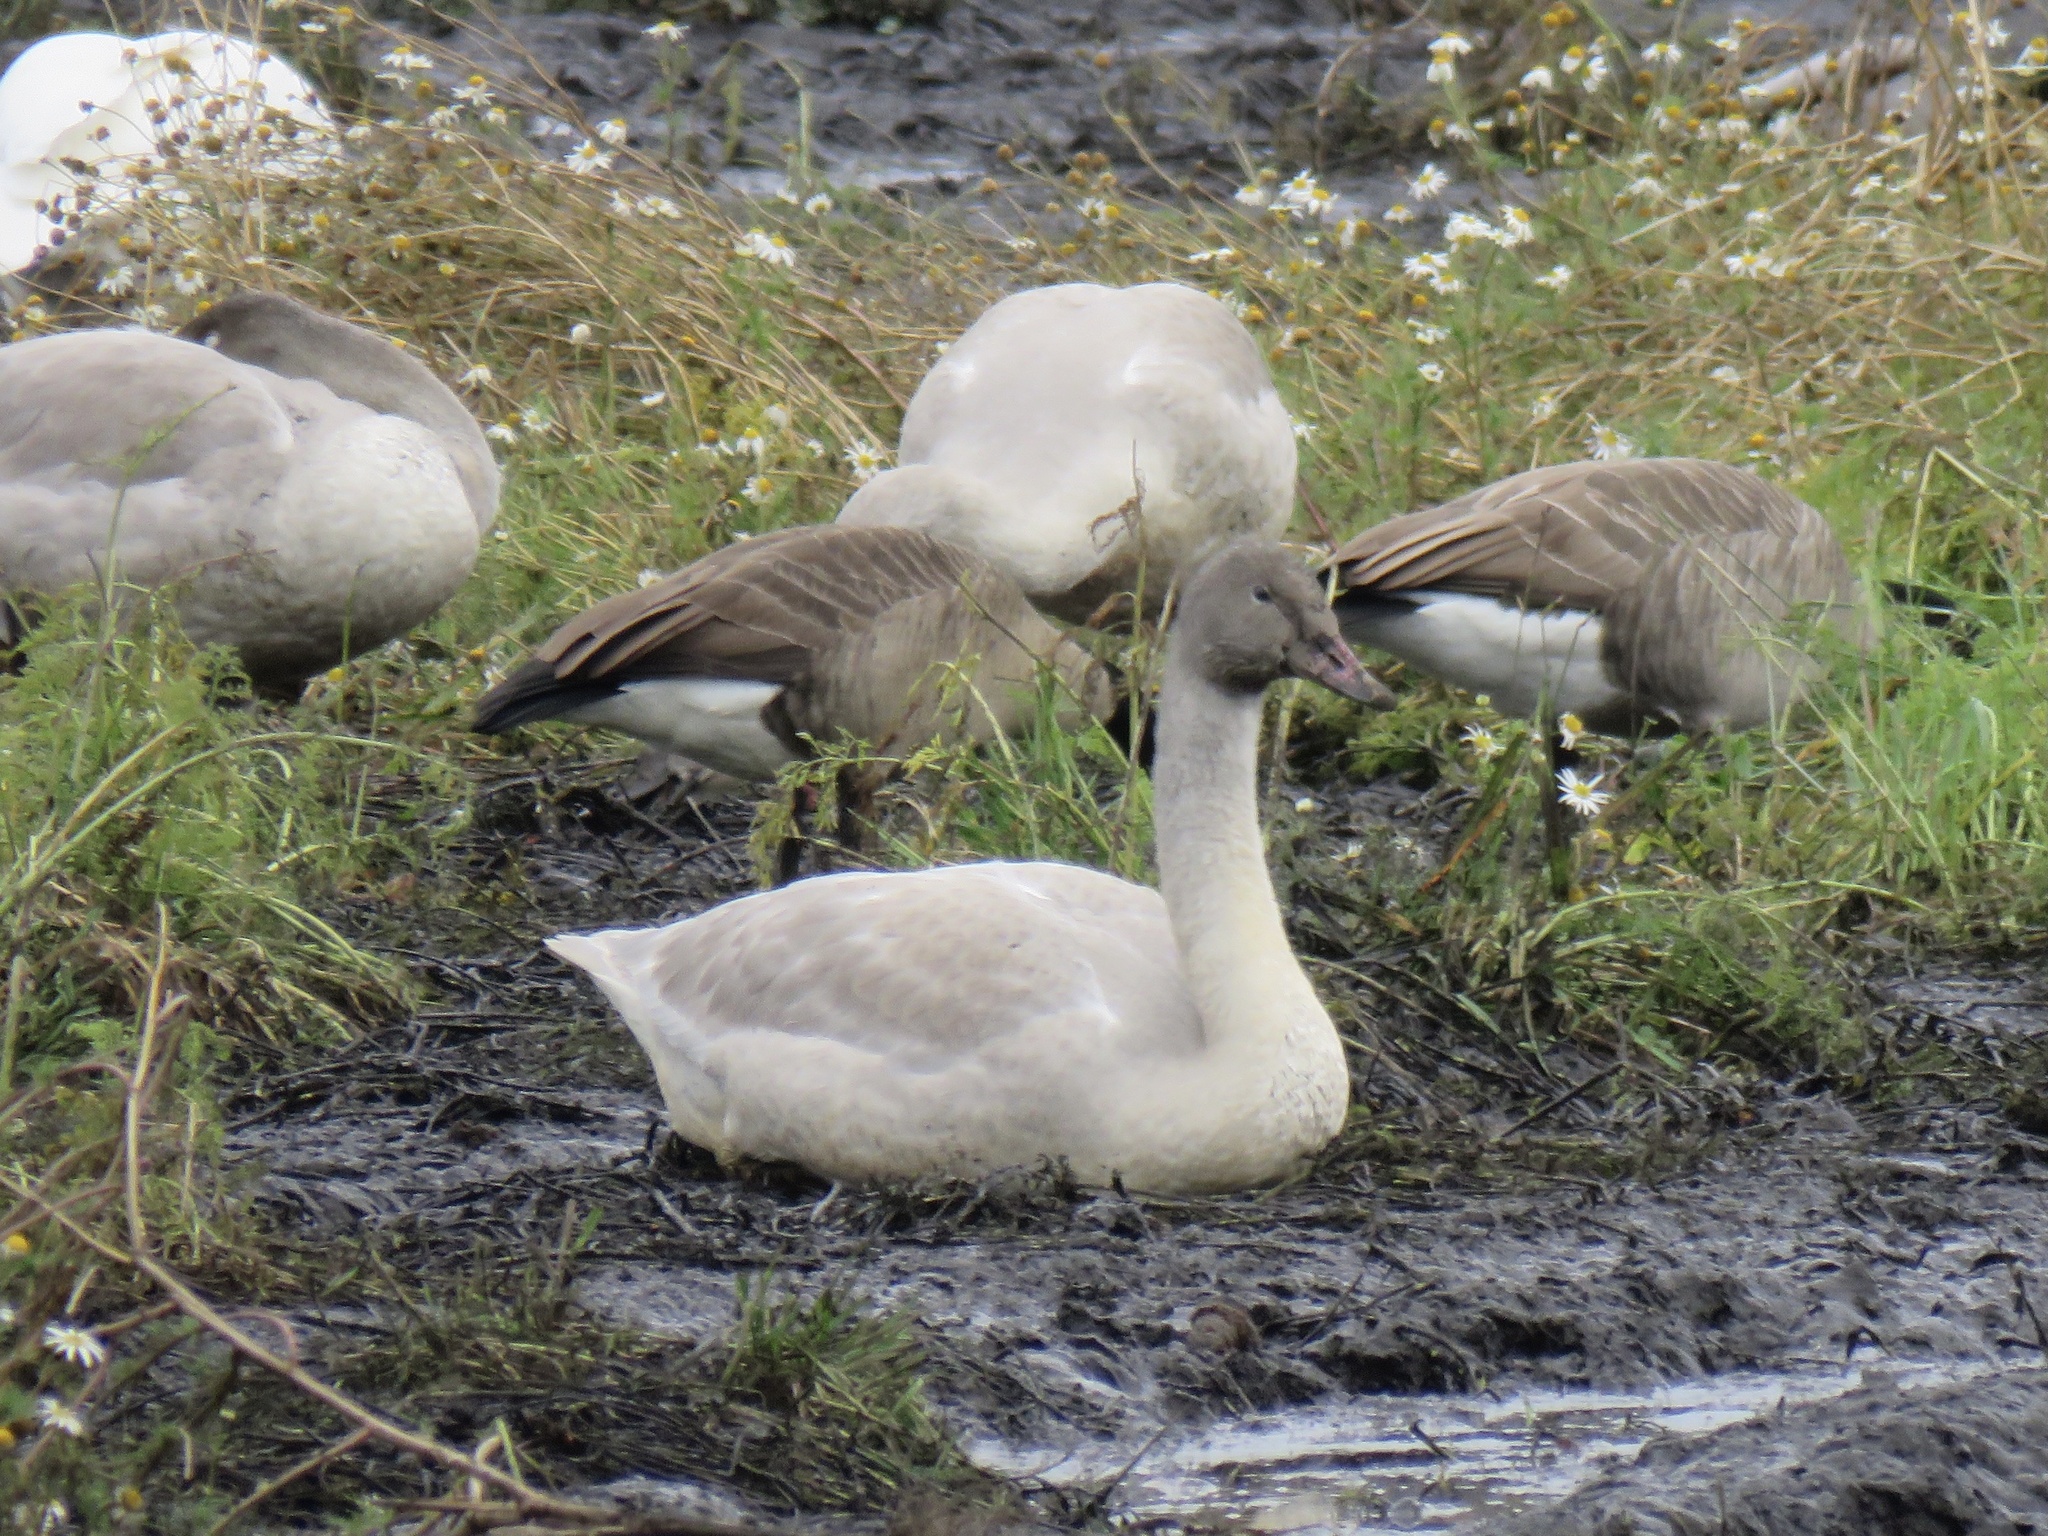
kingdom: Animalia
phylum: Chordata
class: Aves
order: Anseriformes
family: Anatidae
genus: Cygnus
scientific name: Cygnus buccinator
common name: Trumpeter swan
